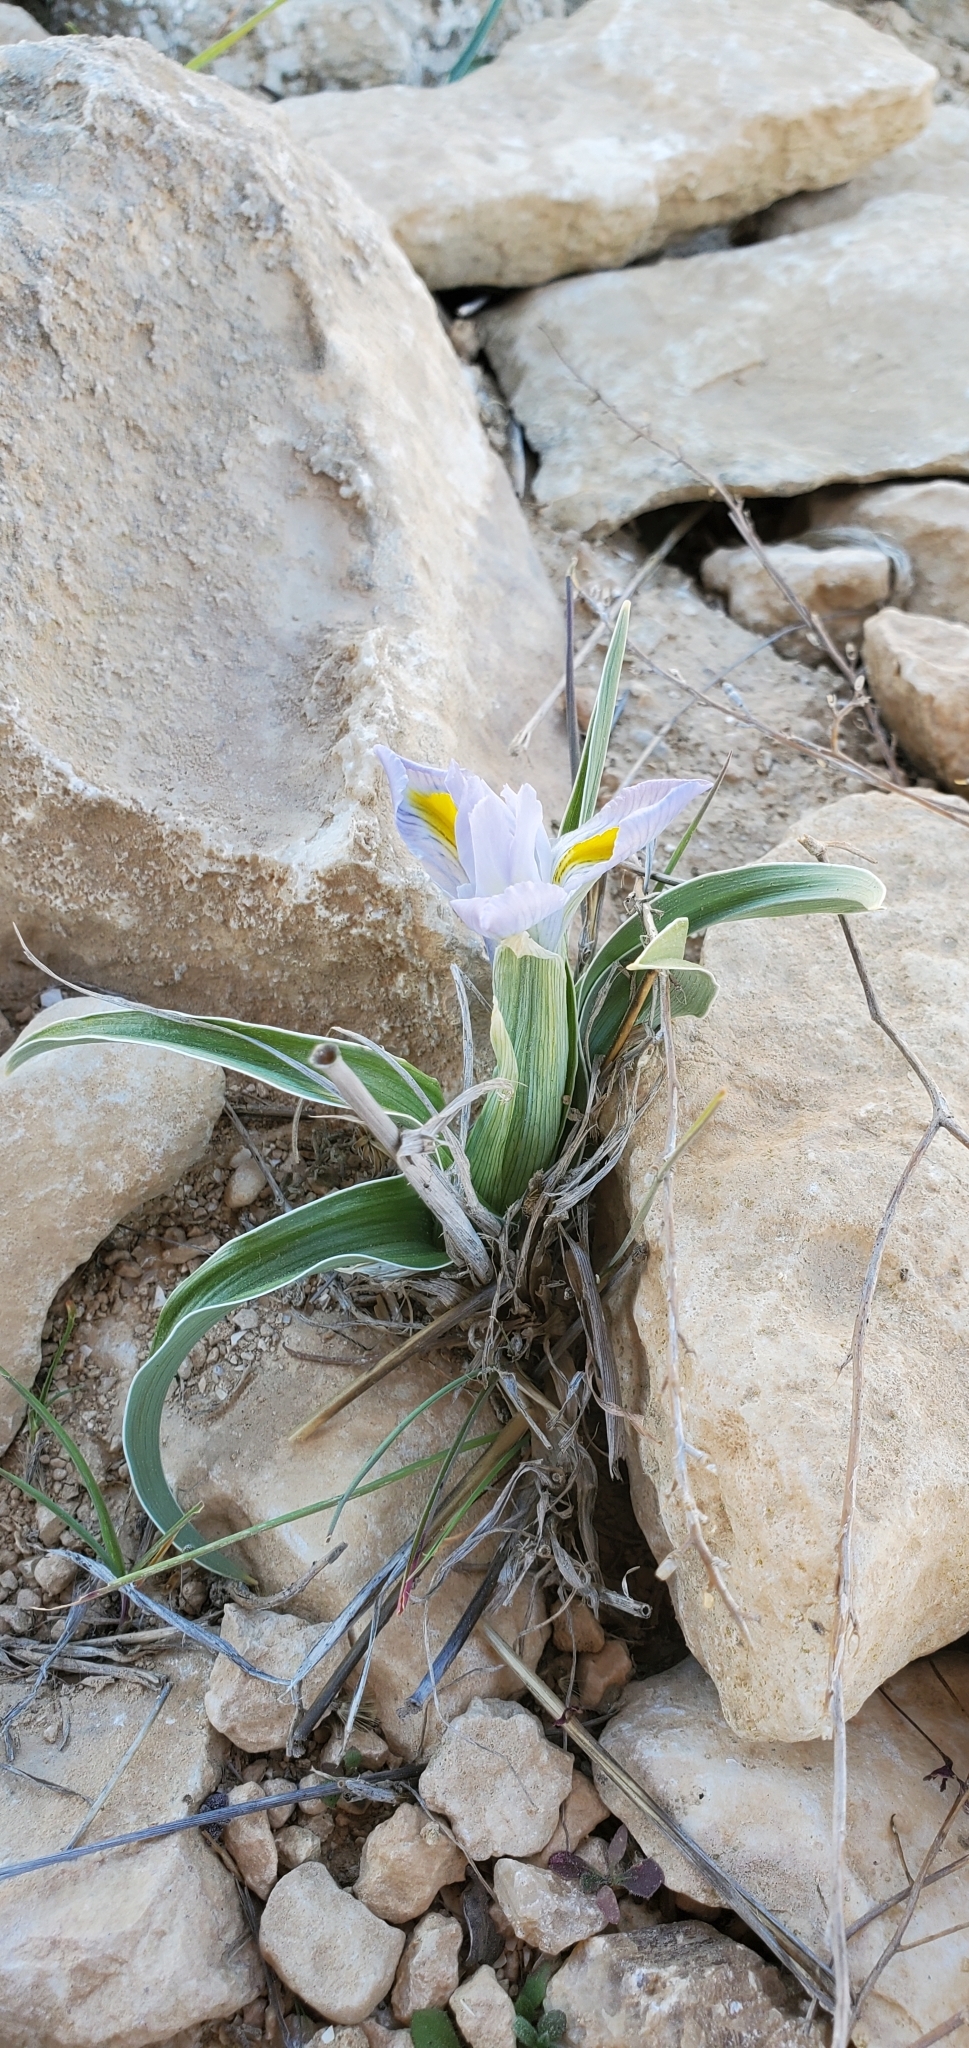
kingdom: Plantae
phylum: Tracheophyta
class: Liliopsida
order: Asparagales
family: Iridaceae
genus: Iris
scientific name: Iris regis-uzziae
